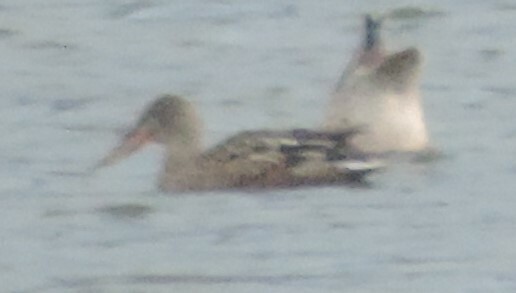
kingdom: Animalia
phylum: Chordata
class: Aves
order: Anseriformes
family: Anatidae
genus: Spatula
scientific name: Spatula clypeata
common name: Northern shoveler
